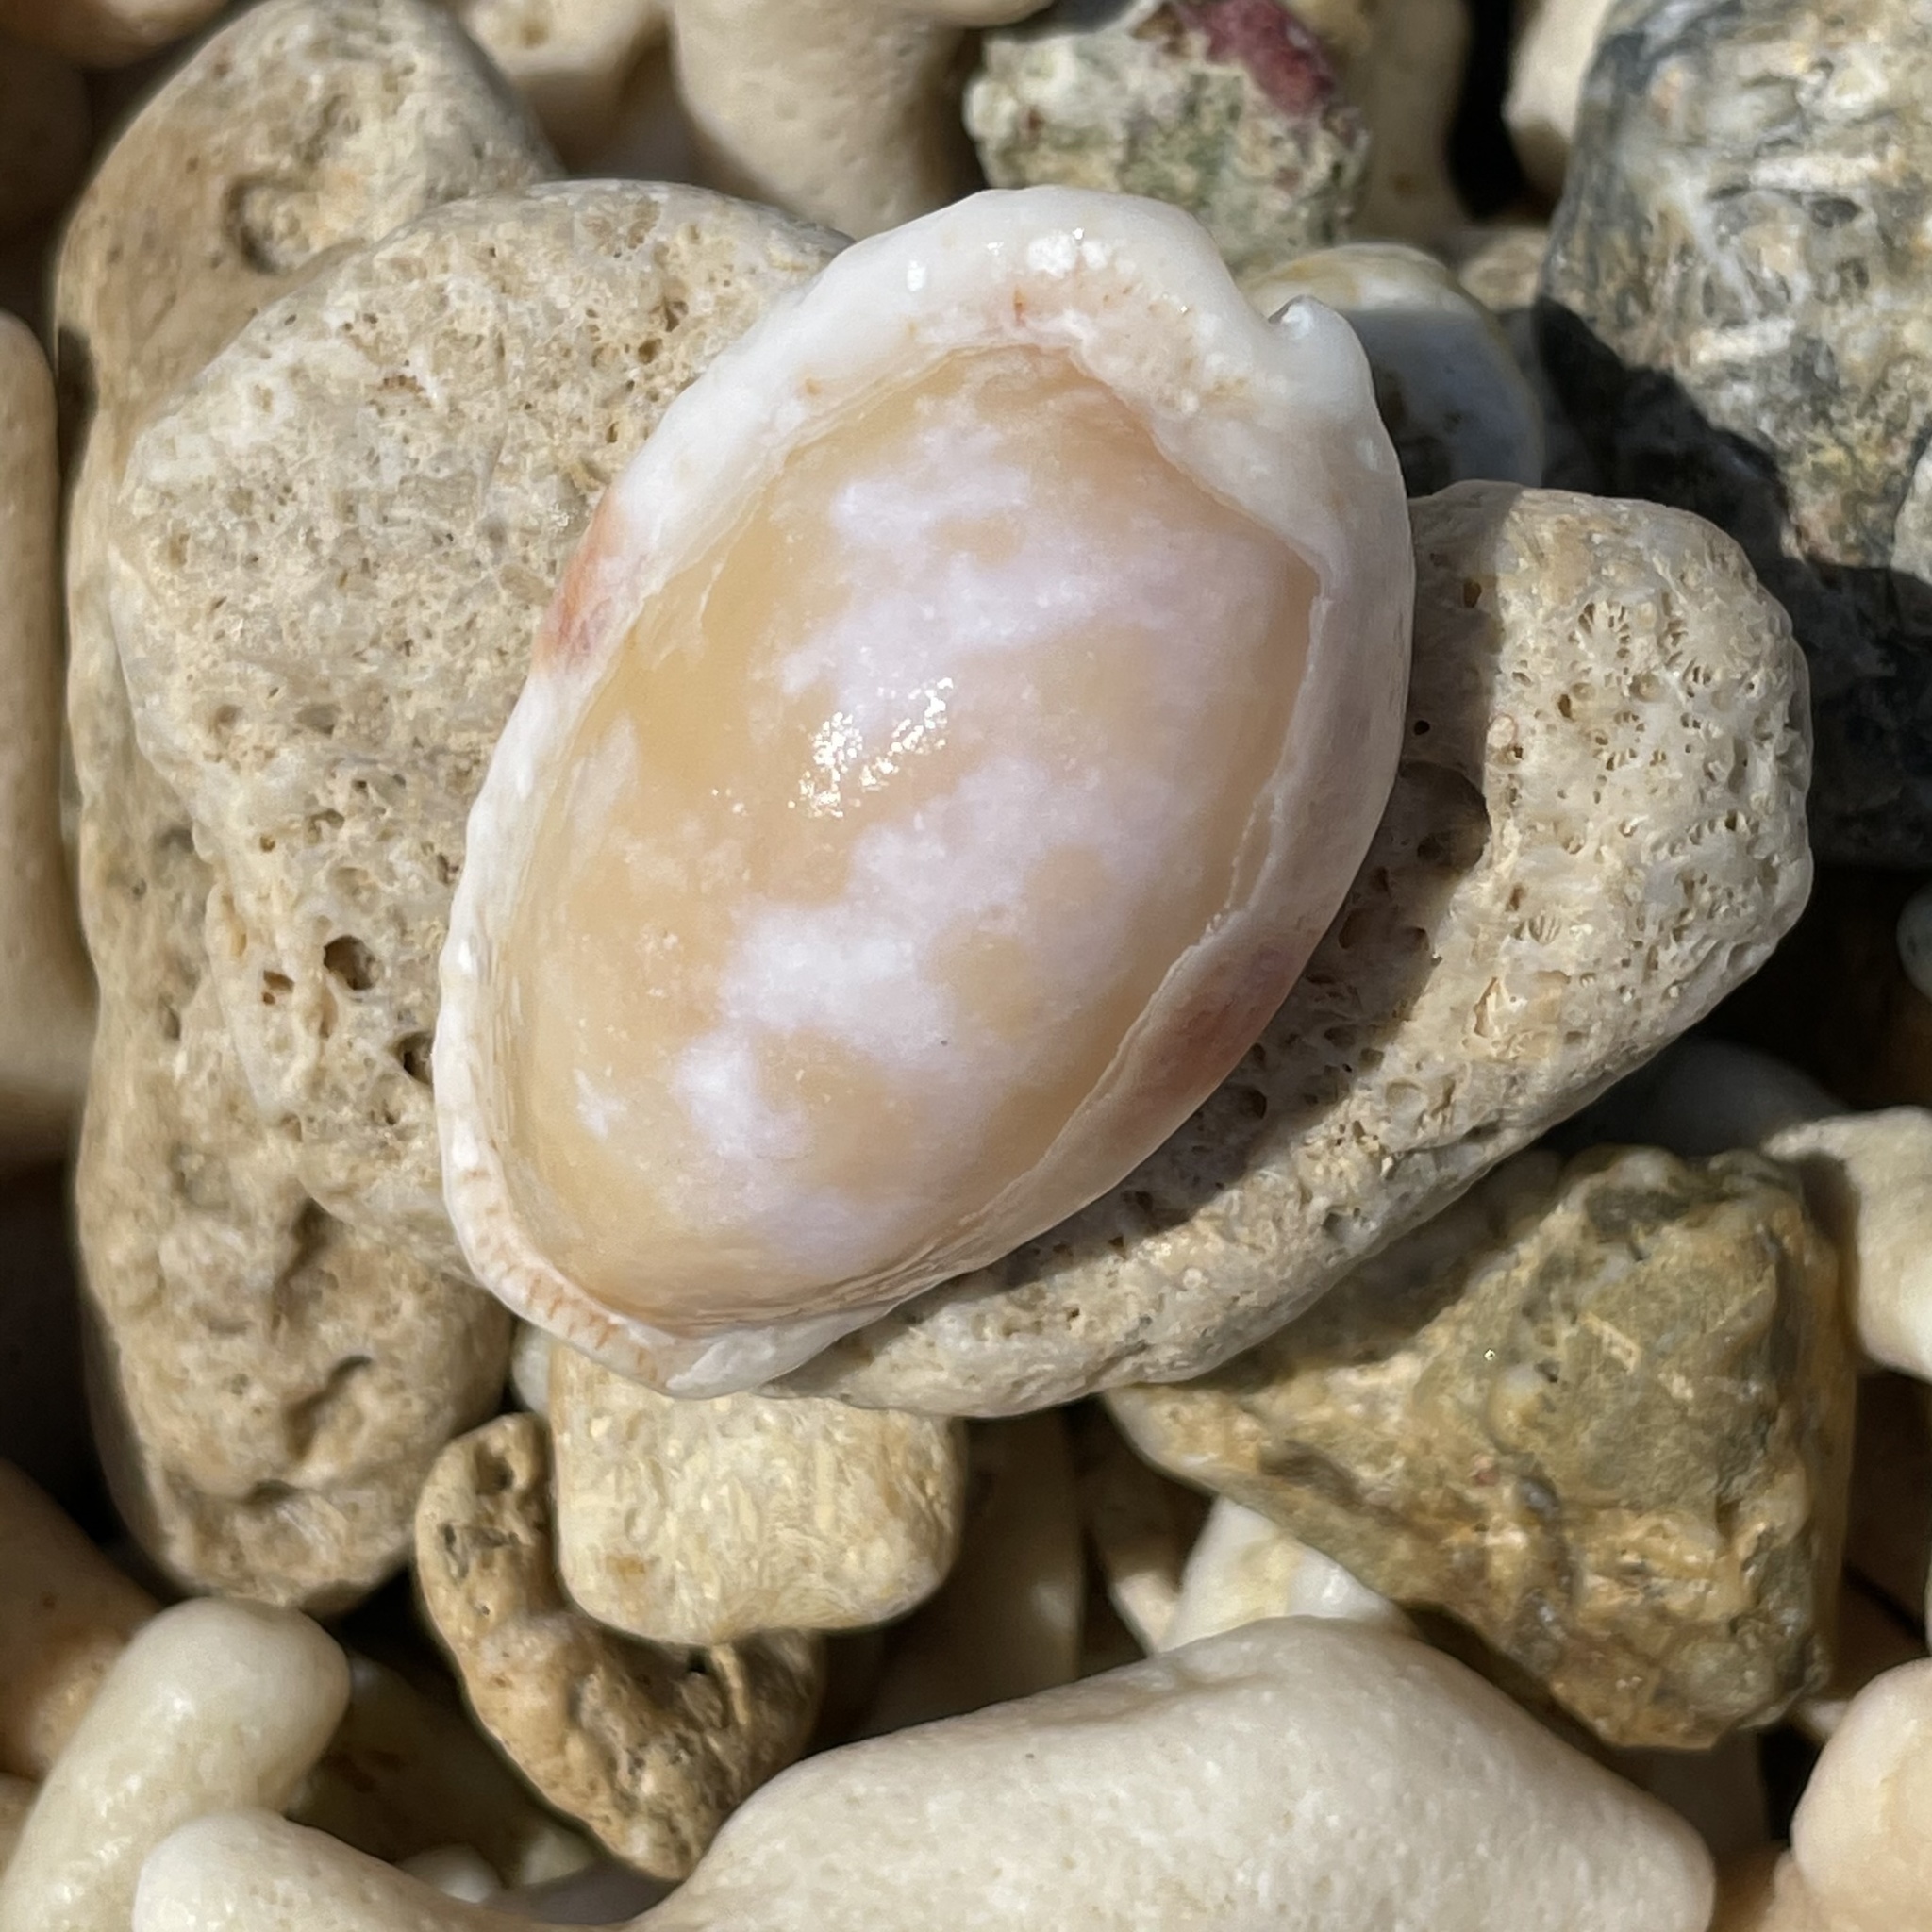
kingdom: Animalia
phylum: Mollusca
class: Gastropoda
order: Littorinimorpha
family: Cypraeidae
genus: Naria
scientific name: Naria erosa
